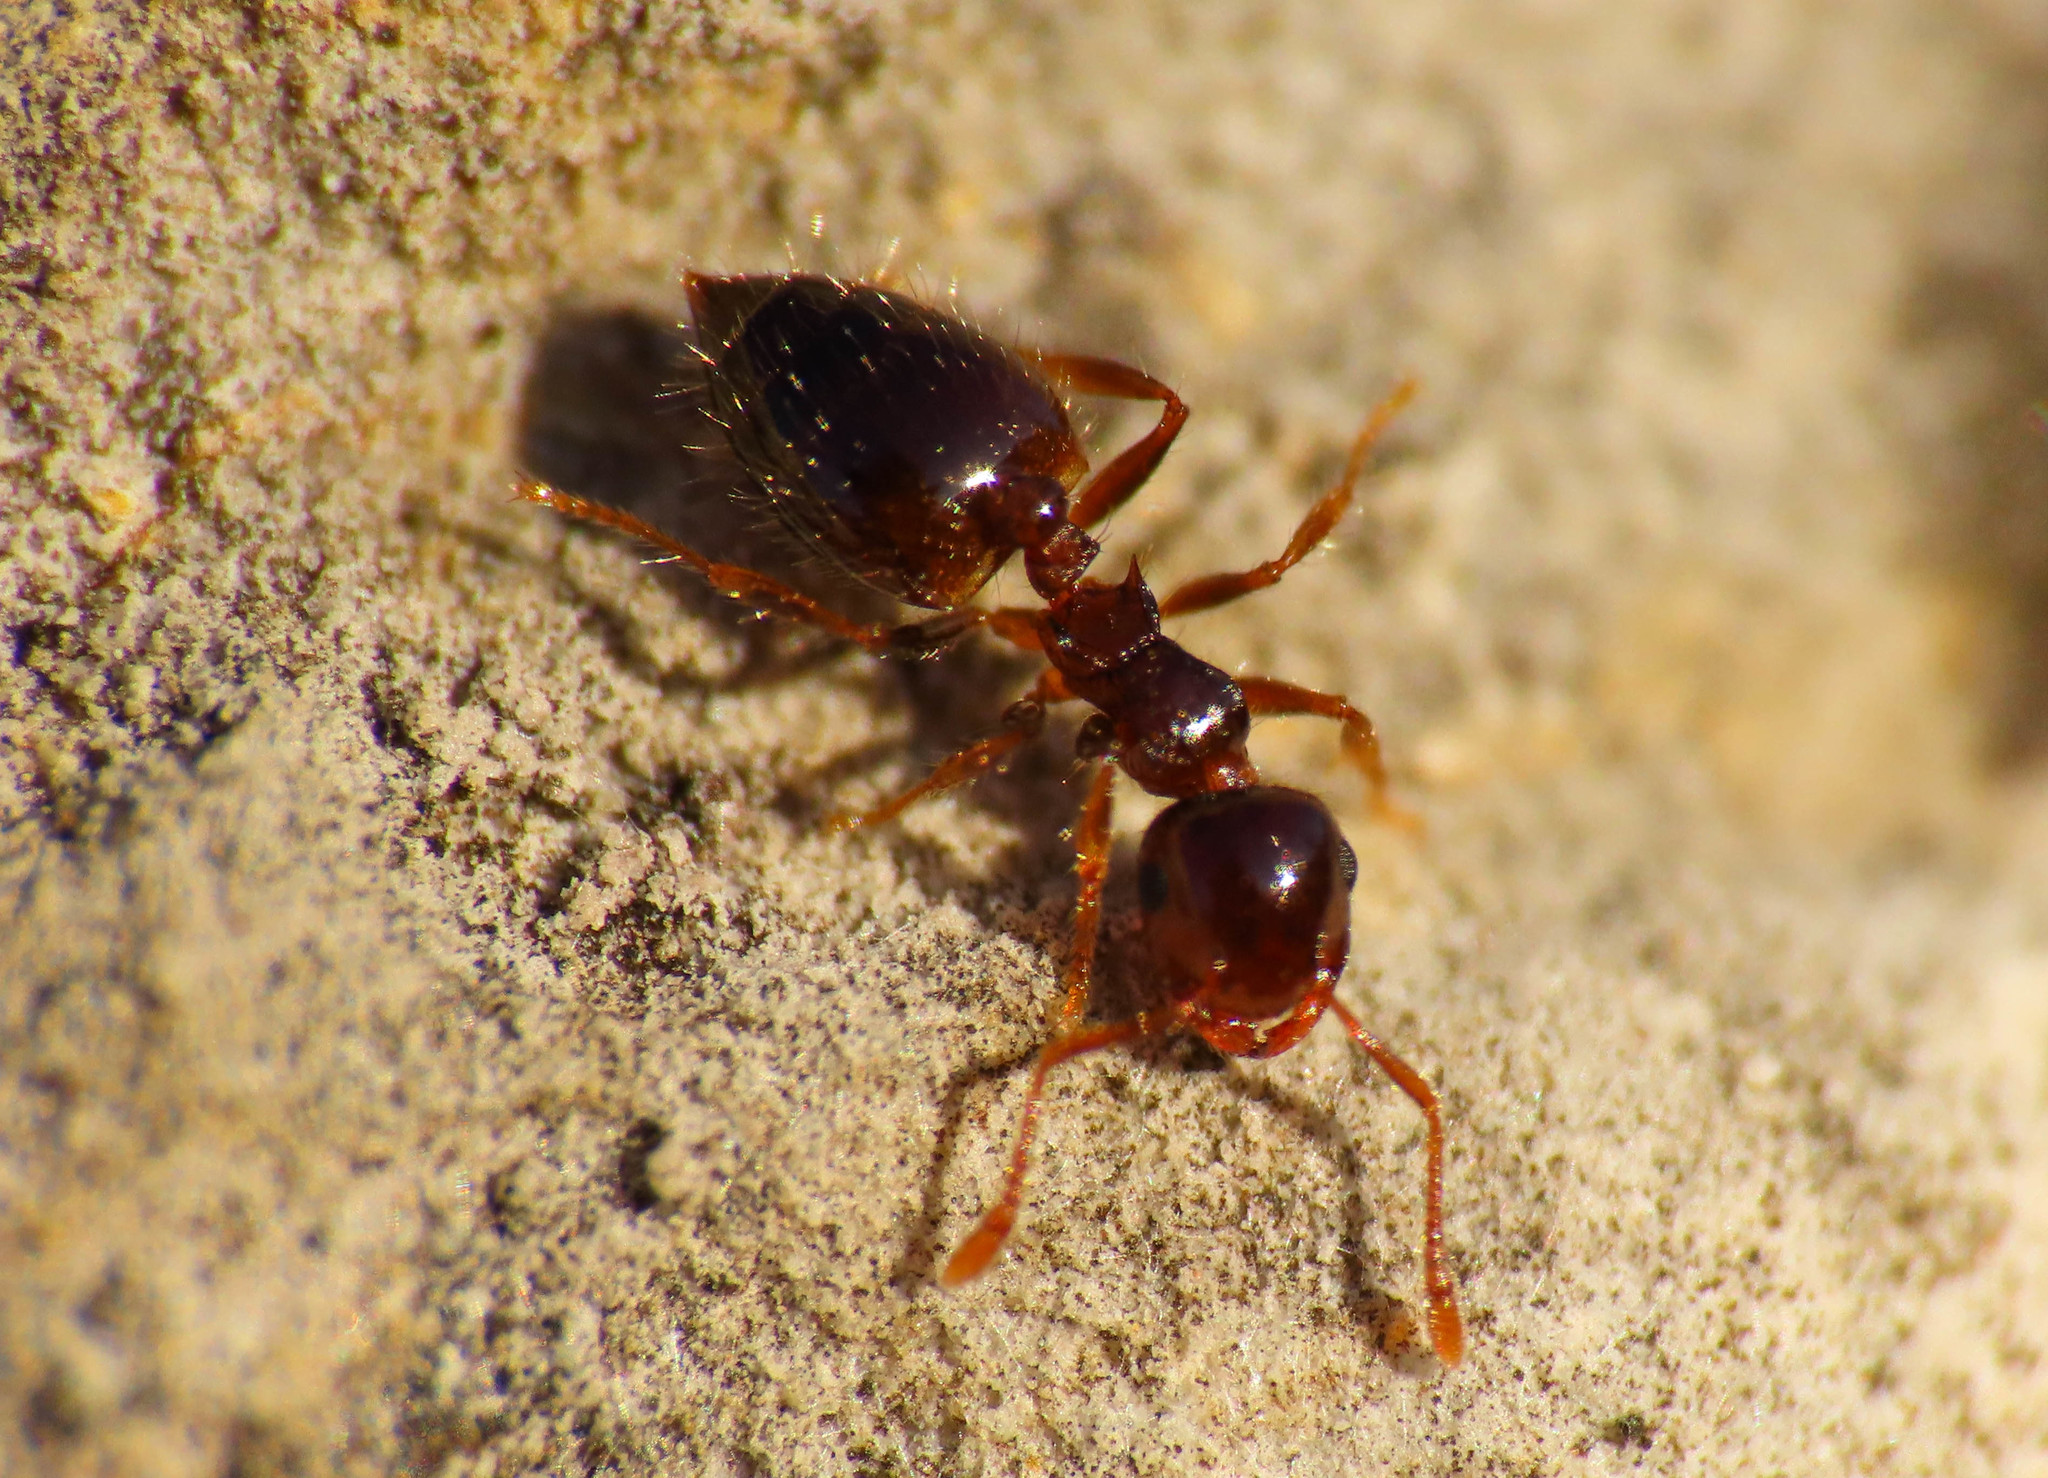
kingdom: Animalia
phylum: Arthropoda
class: Insecta
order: Hymenoptera
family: Formicidae
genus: Crematogaster
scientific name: Crematogaster sordidula
